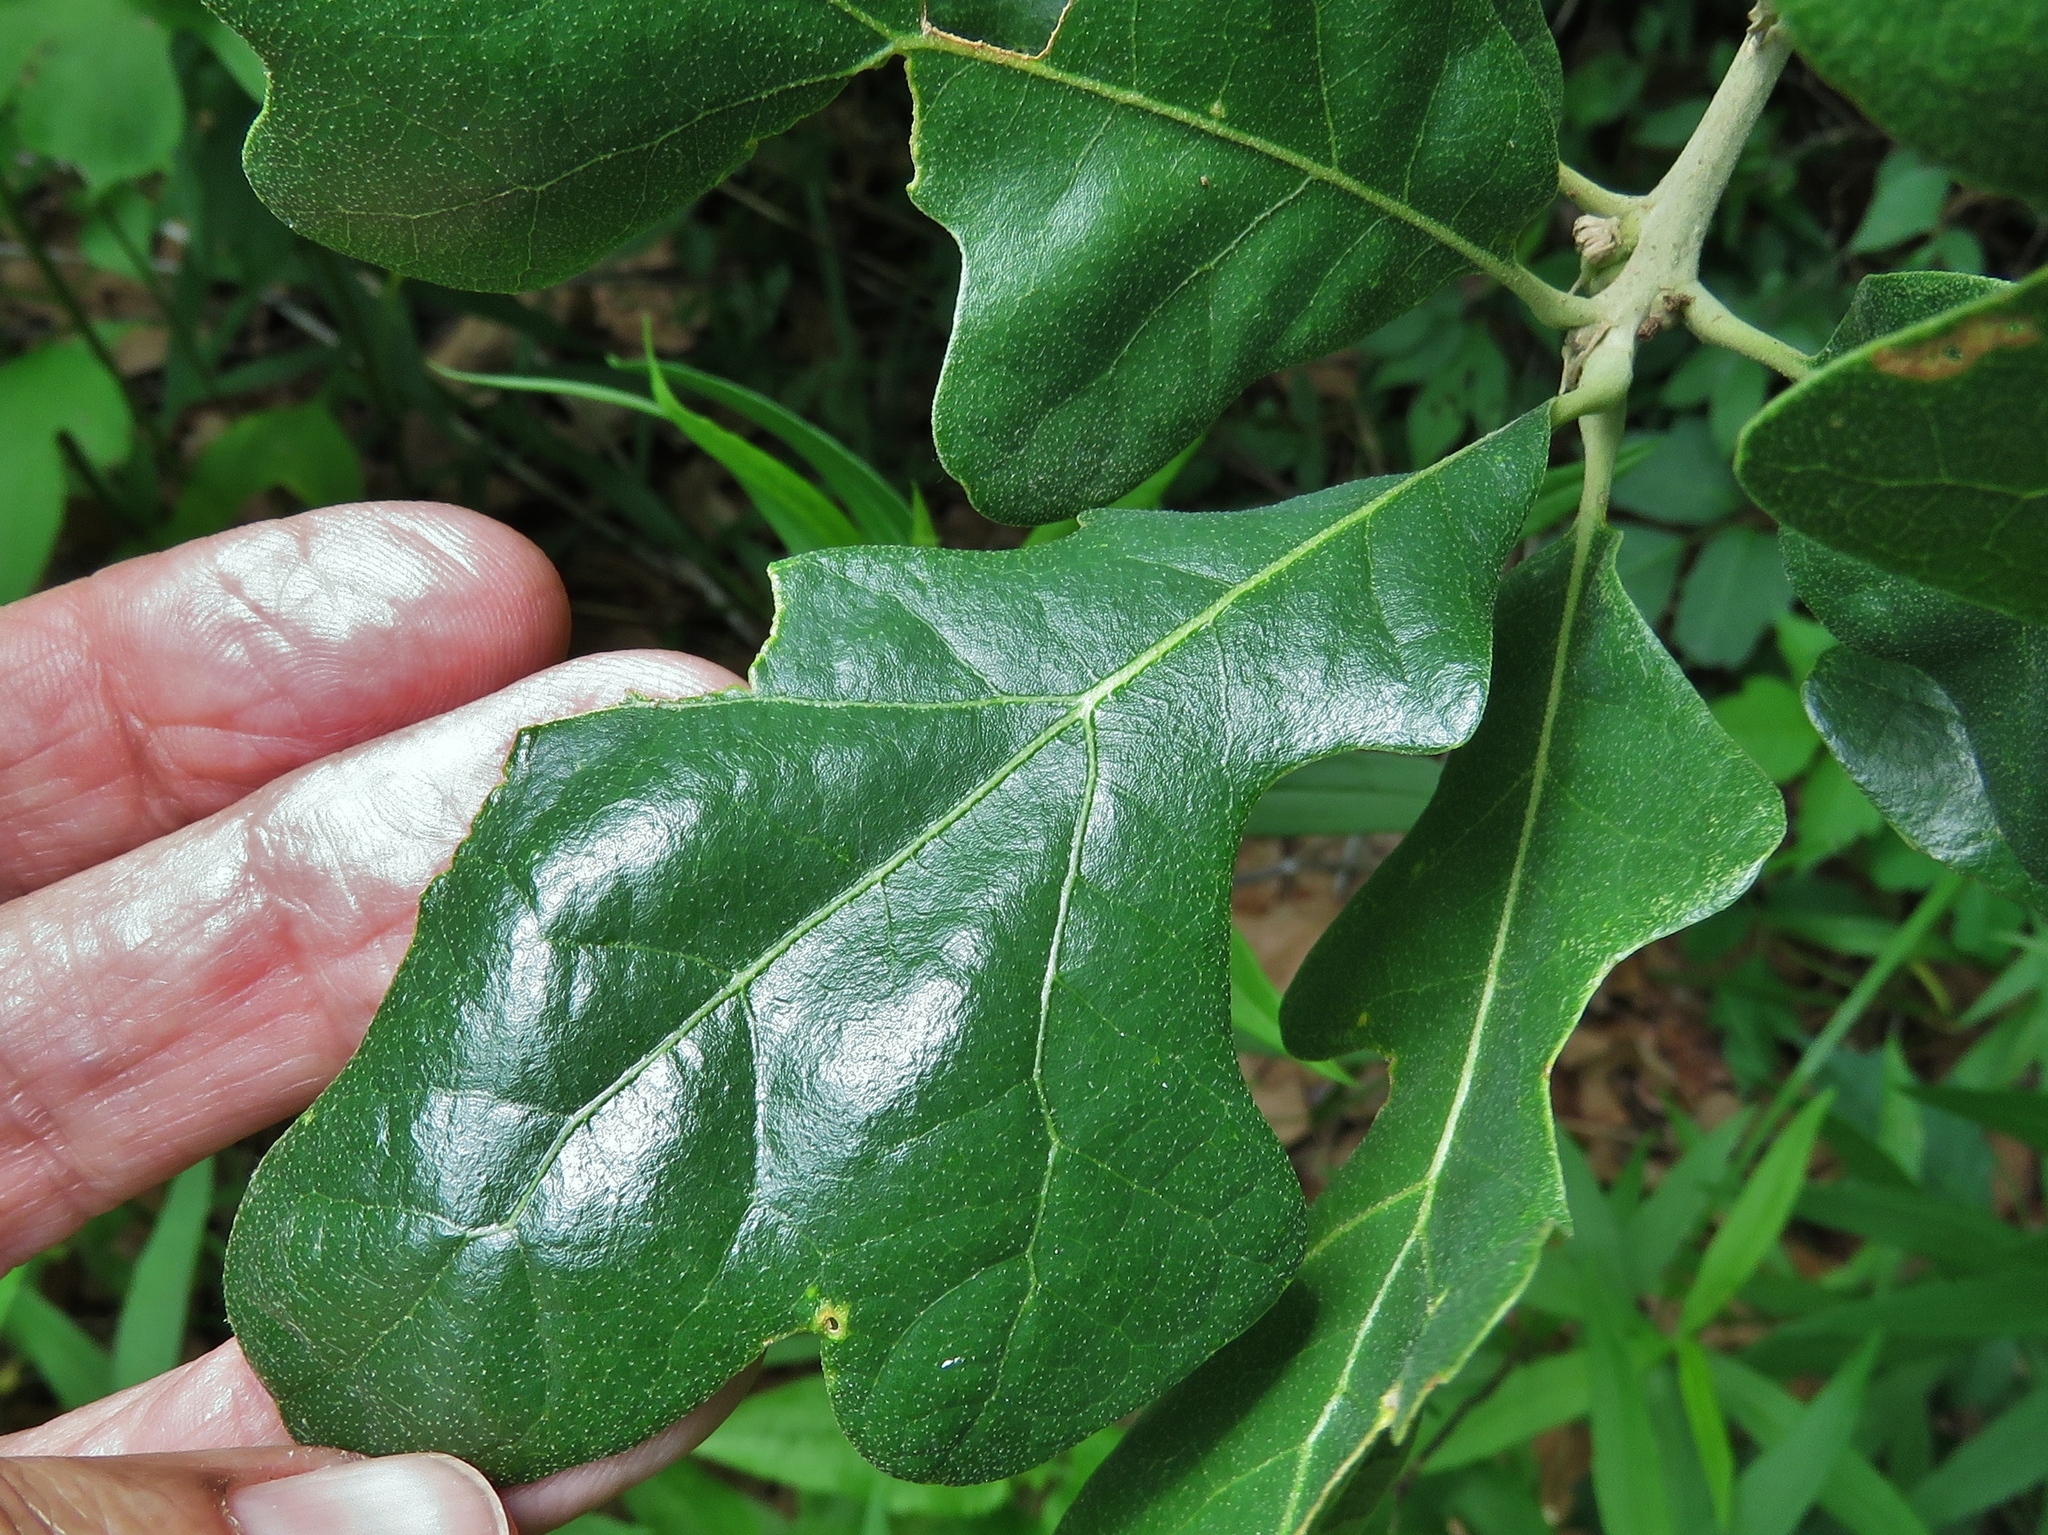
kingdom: Plantae
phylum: Tracheophyta
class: Magnoliopsida
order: Fagales
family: Fagaceae
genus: Quercus
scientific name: Quercus stellata
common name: Post oak
